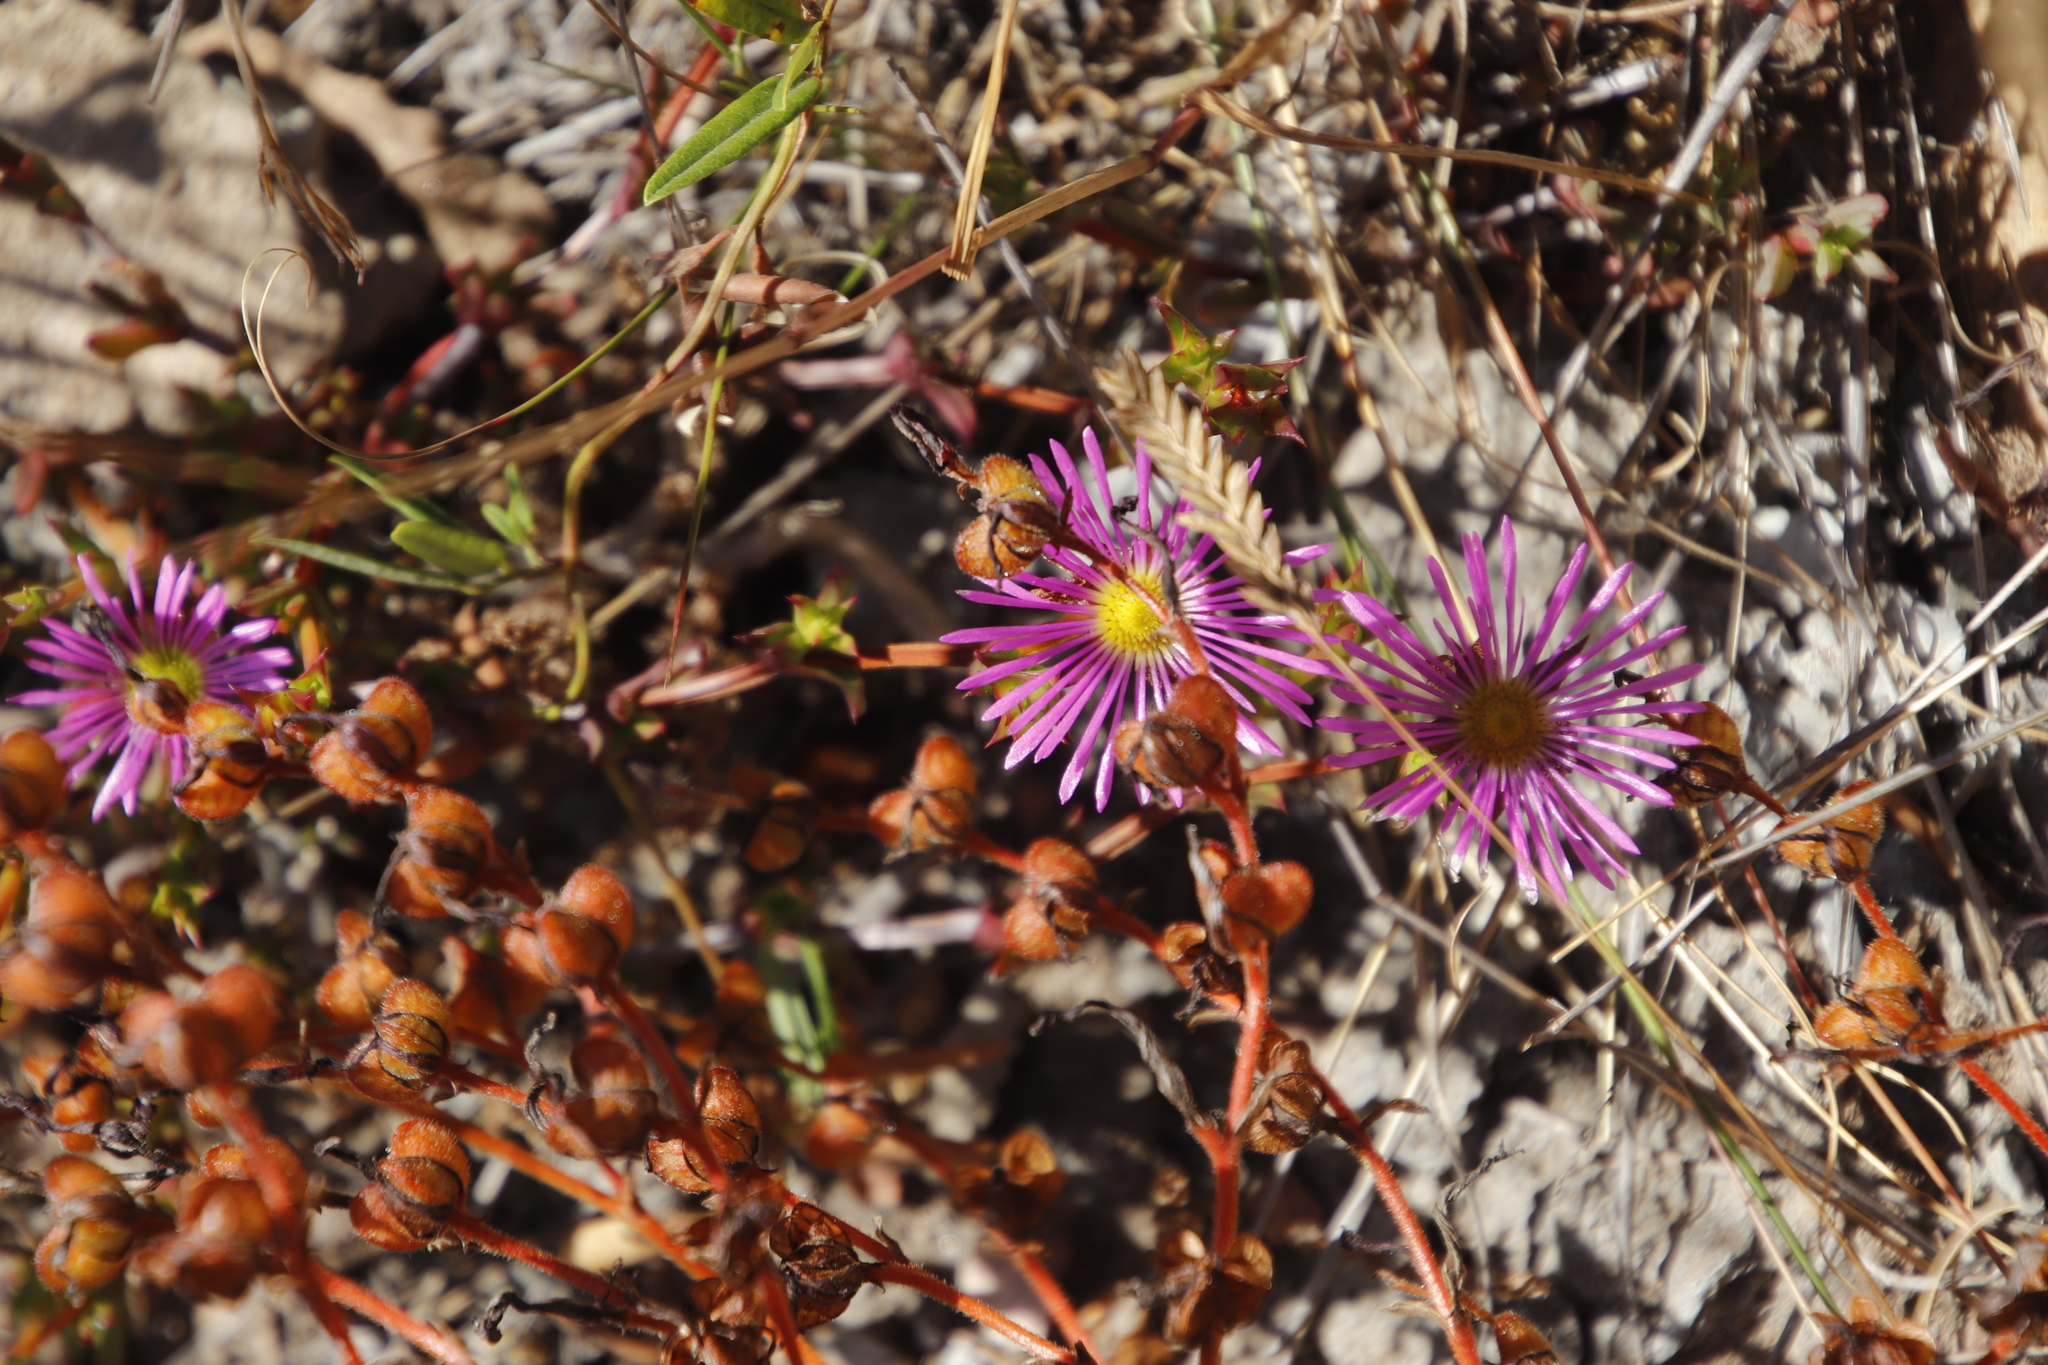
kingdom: Plantae
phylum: Tracheophyta
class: Liliopsida
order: Commelinales
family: Haemodoraceae
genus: Wachendorfia
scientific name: Wachendorfia paniculata
